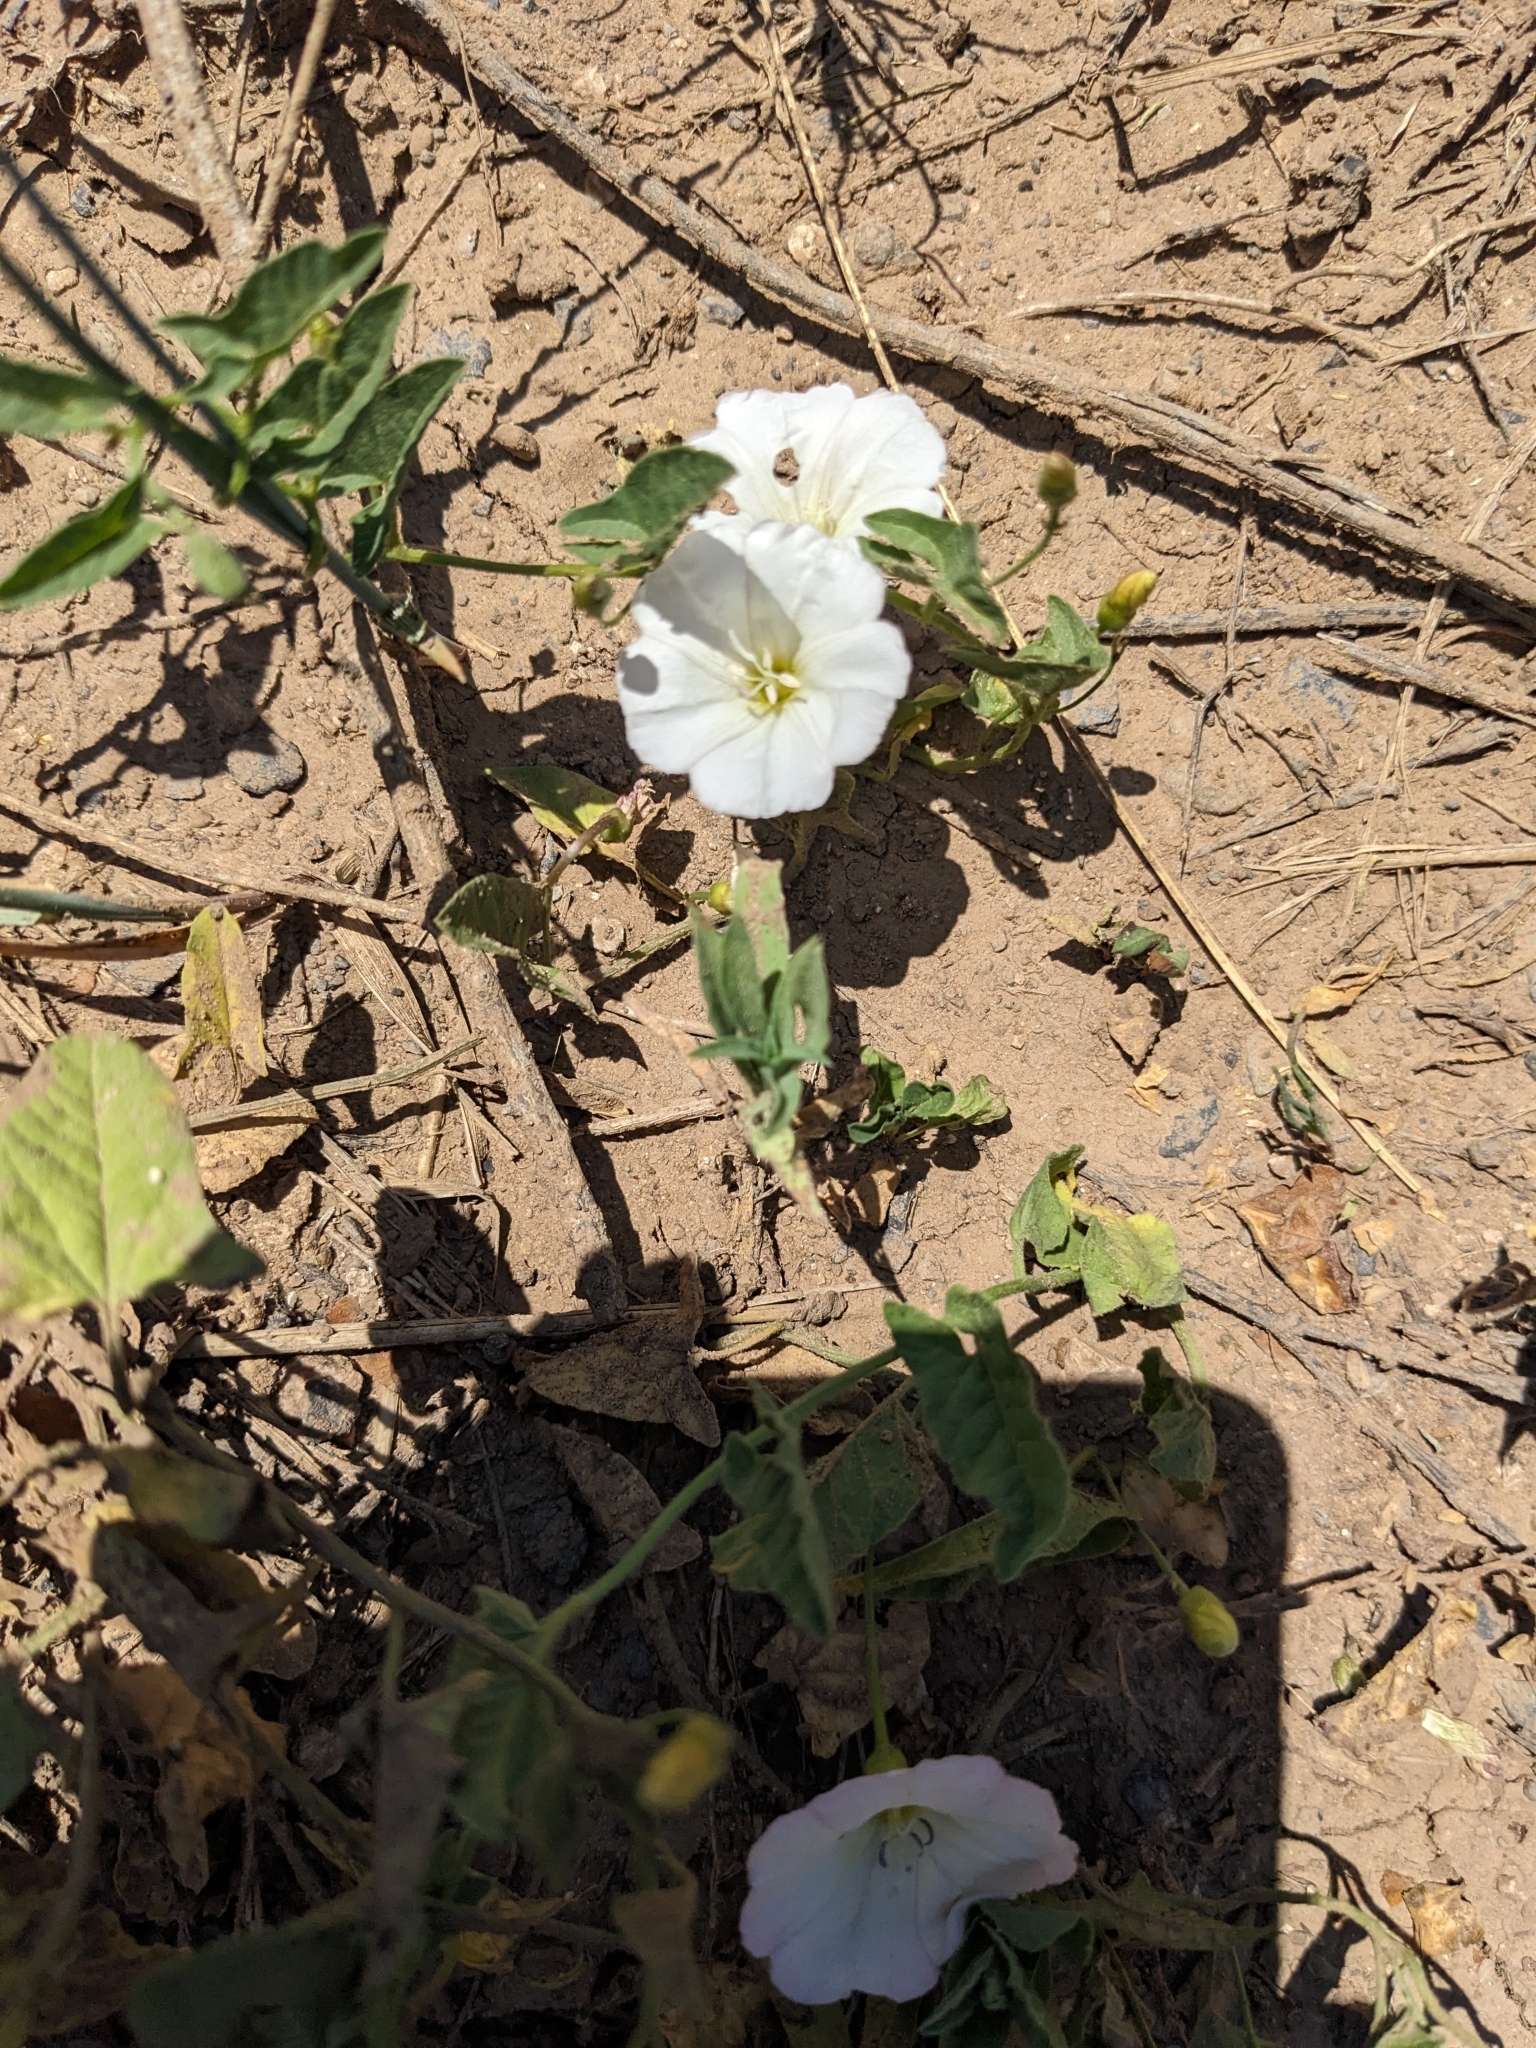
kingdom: Plantae
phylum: Tracheophyta
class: Magnoliopsida
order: Solanales
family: Convolvulaceae
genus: Convolvulus
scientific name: Convolvulus arvensis
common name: Field bindweed
